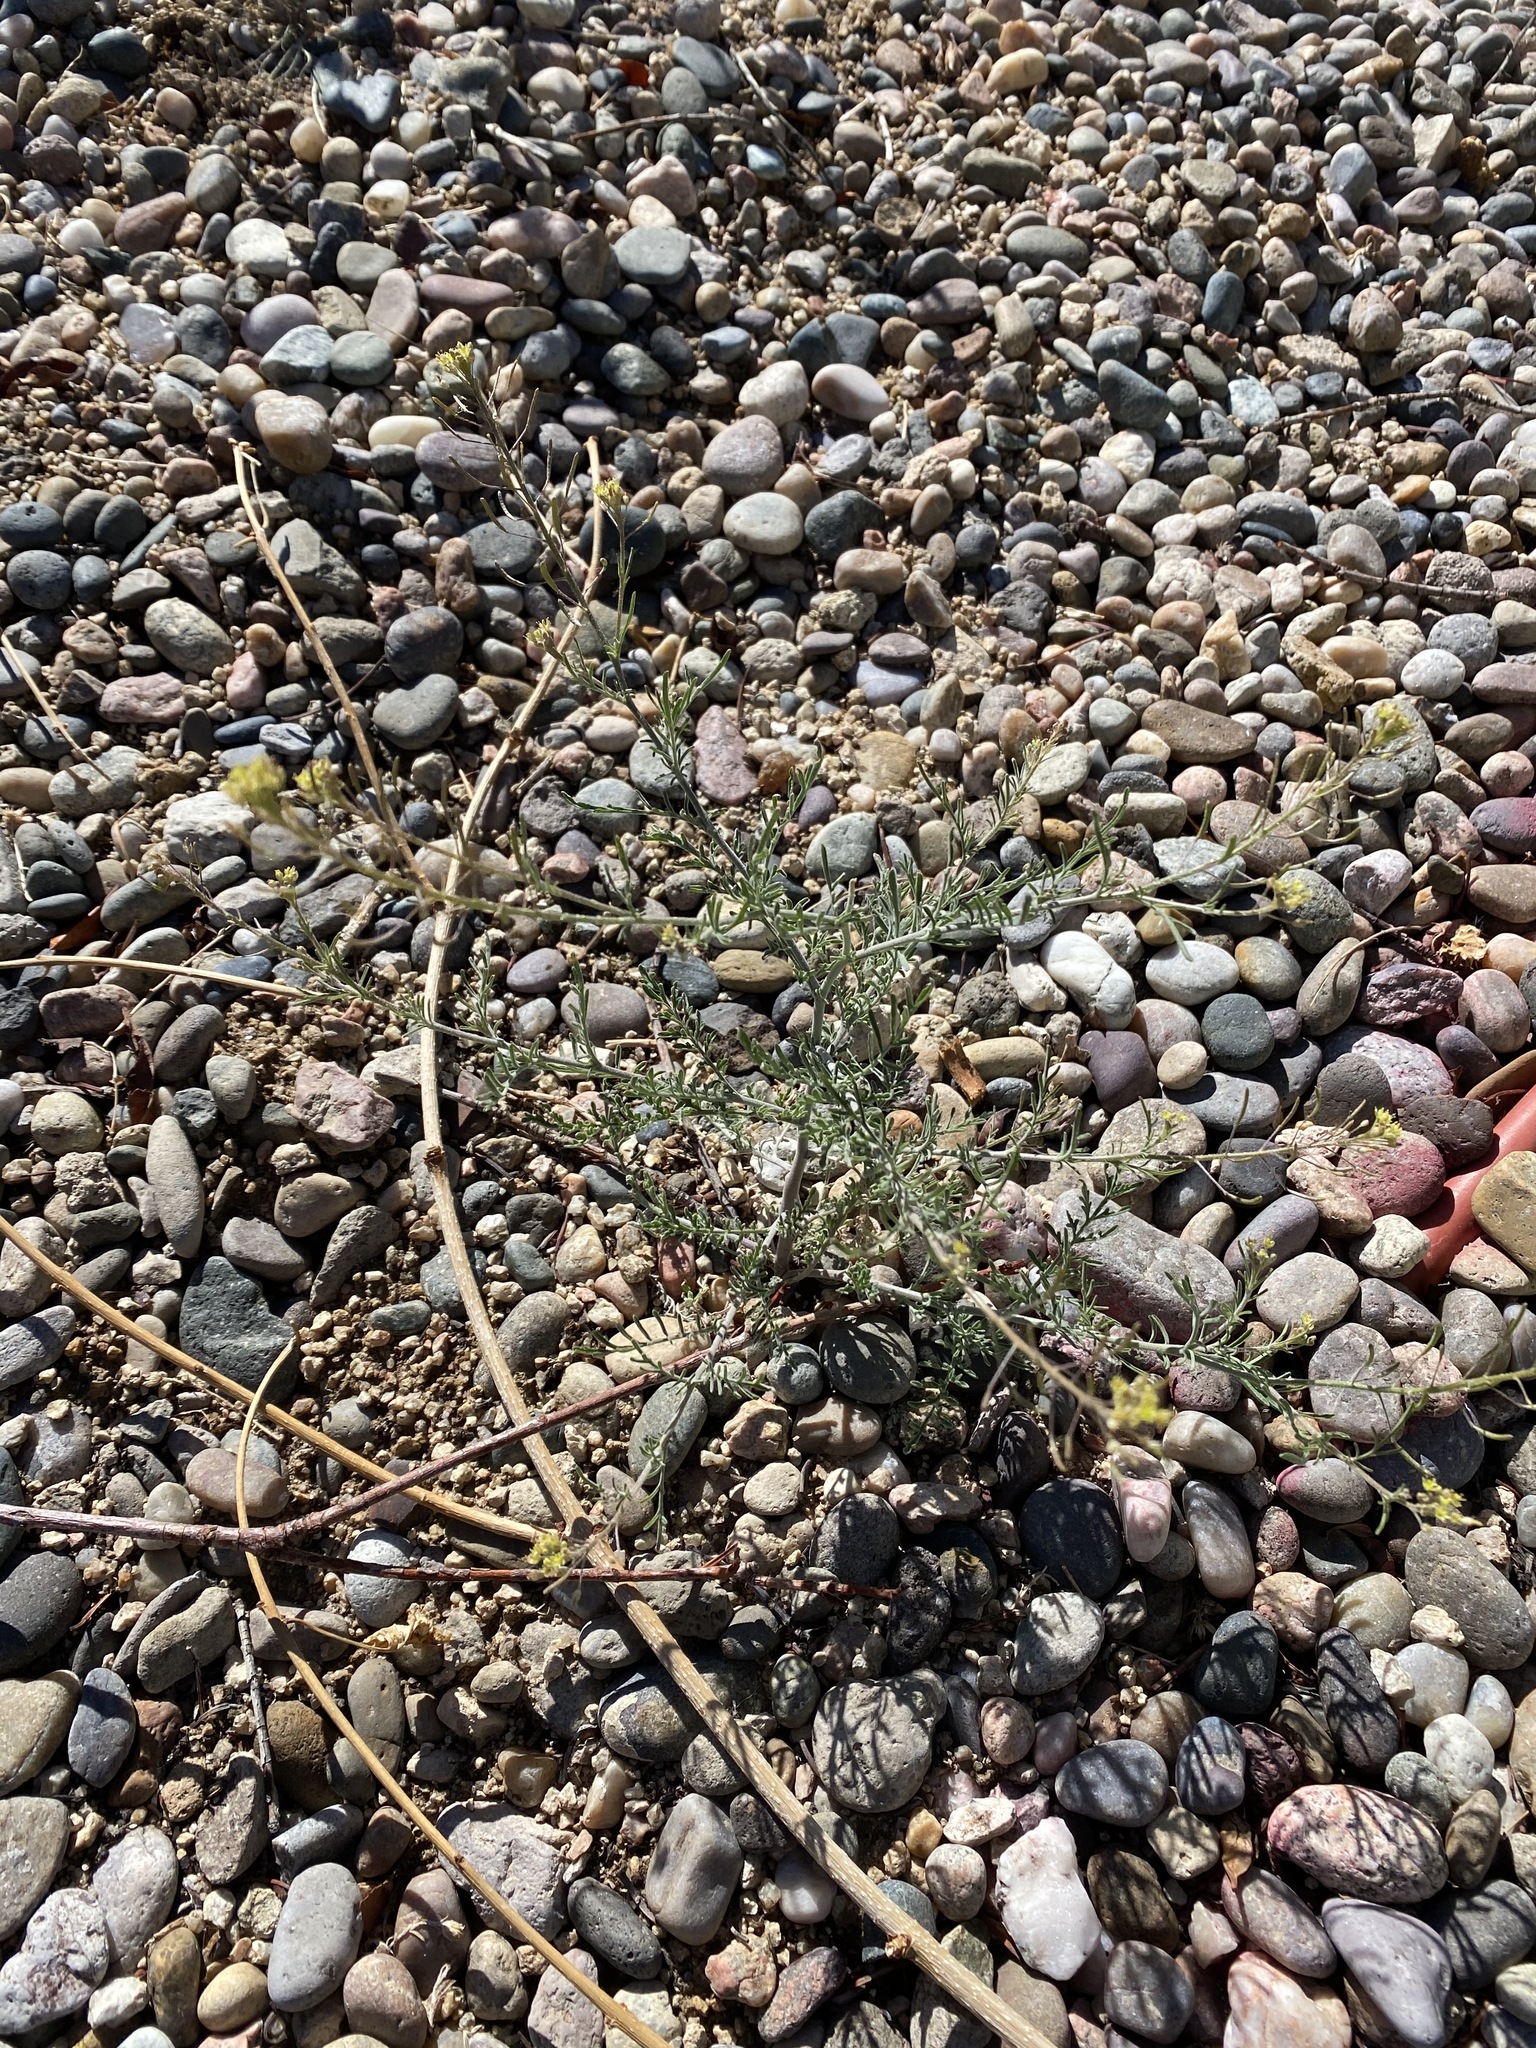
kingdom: Plantae
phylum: Tracheophyta
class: Magnoliopsida
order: Brassicales
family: Brassicaceae
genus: Descurainia
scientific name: Descurainia pinnata
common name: Western tansy mustard
